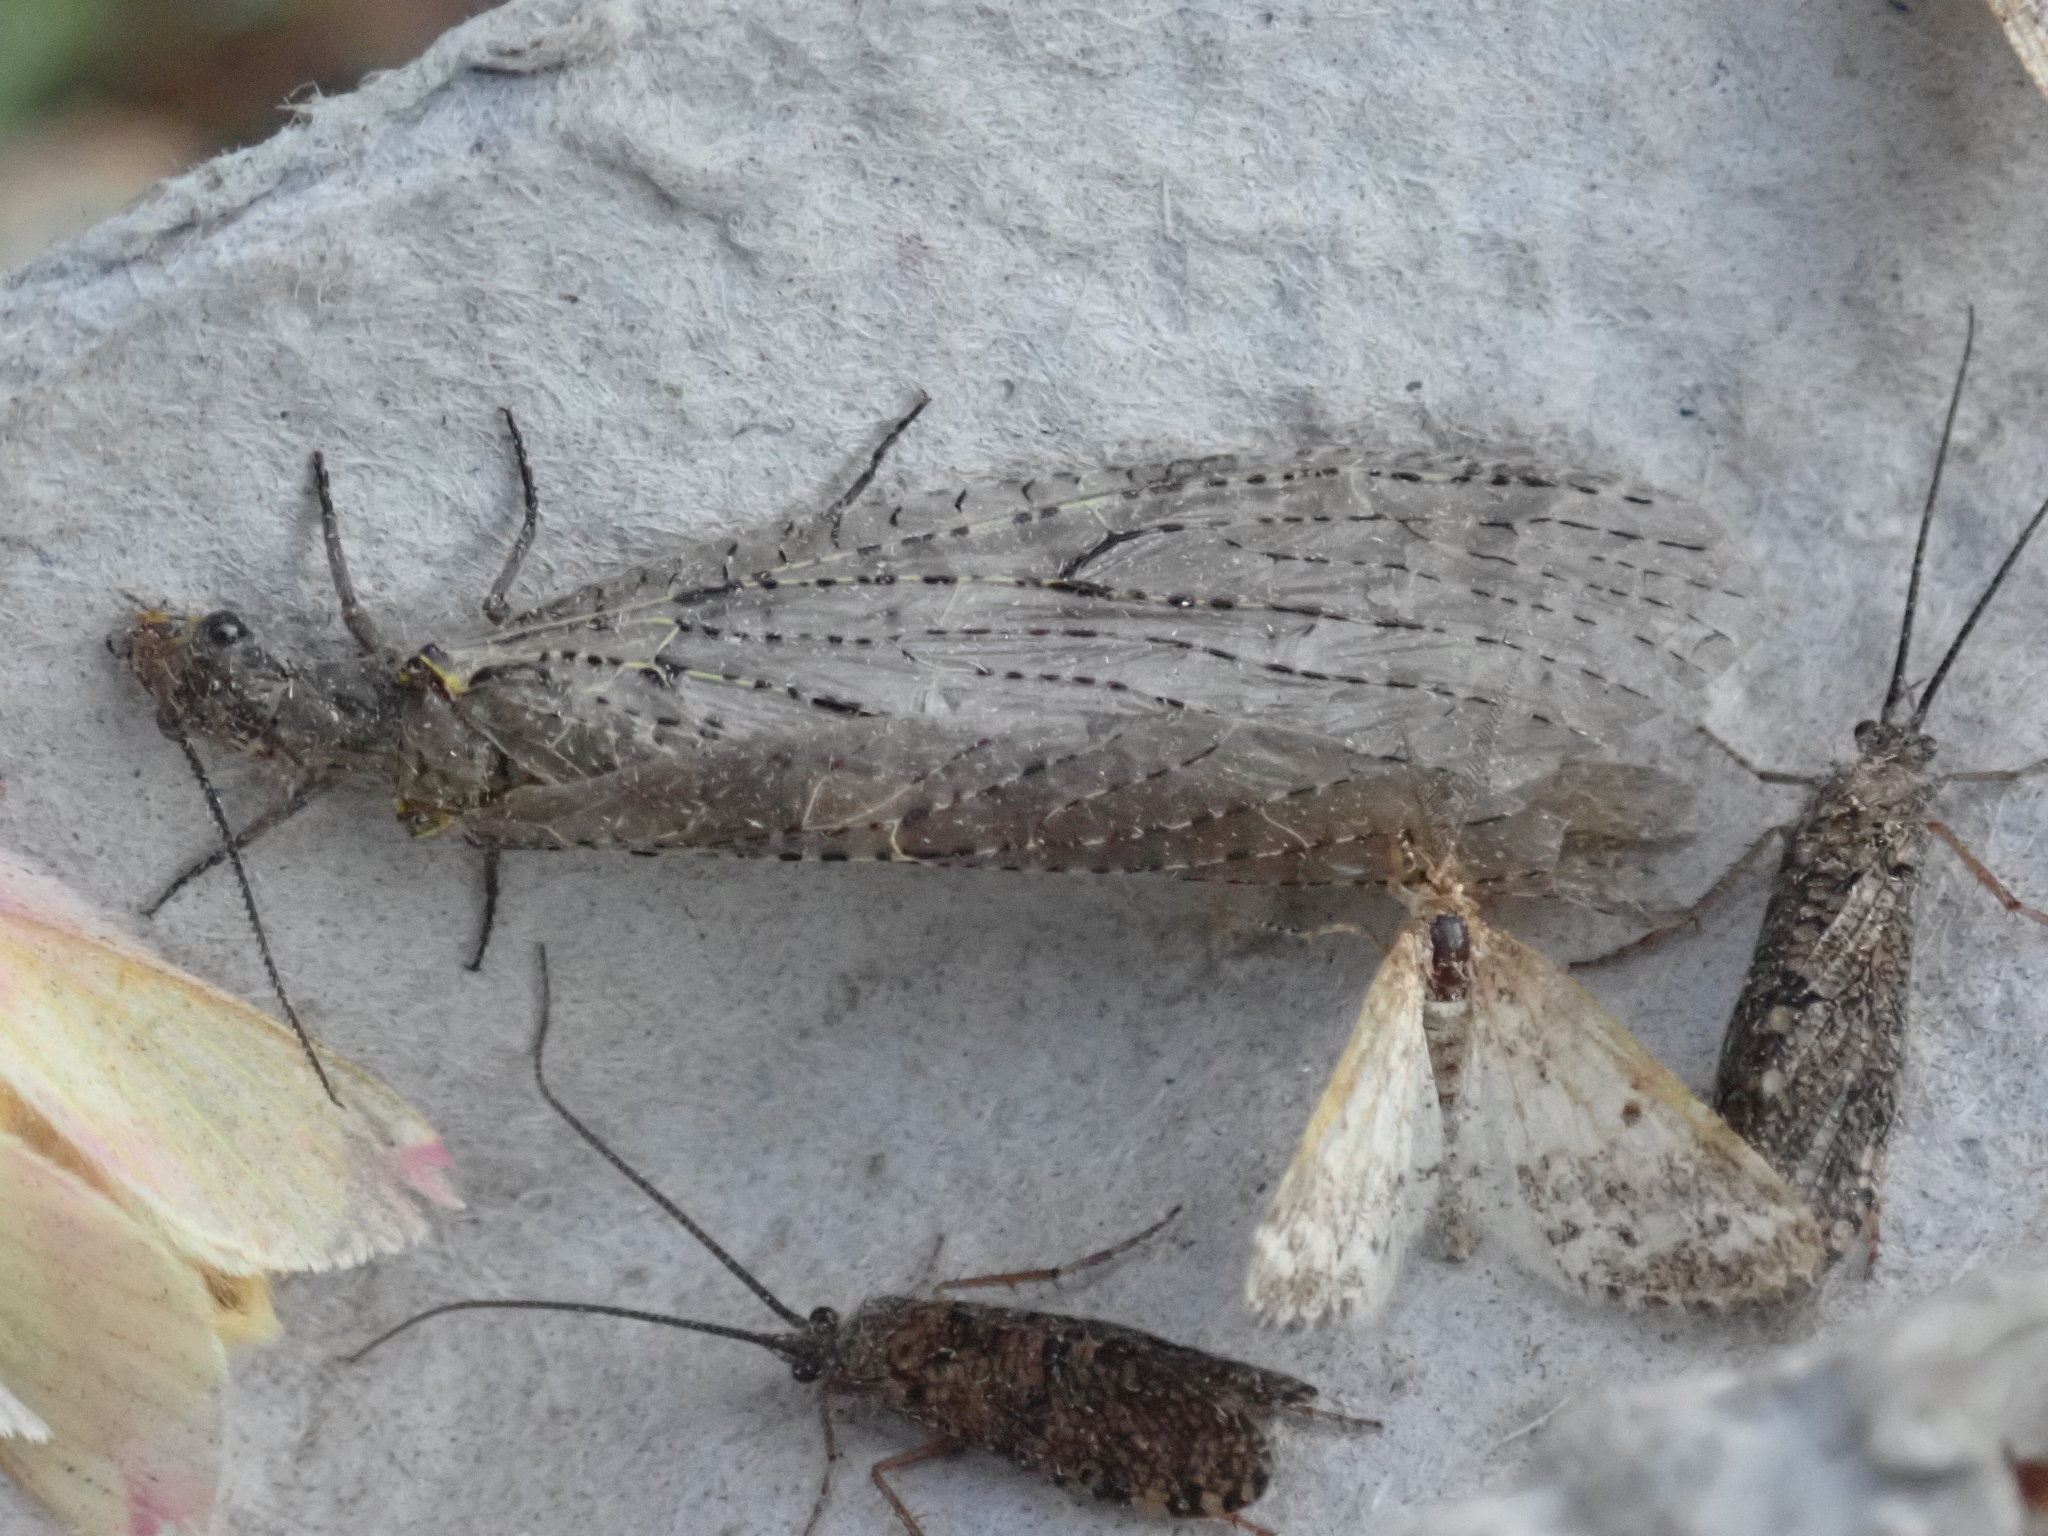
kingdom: Animalia
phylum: Arthropoda
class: Insecta
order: Megaloptera
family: Corydalidae
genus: Chauliodes
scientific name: Chauliodes rastricornis
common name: Spring fishfly
